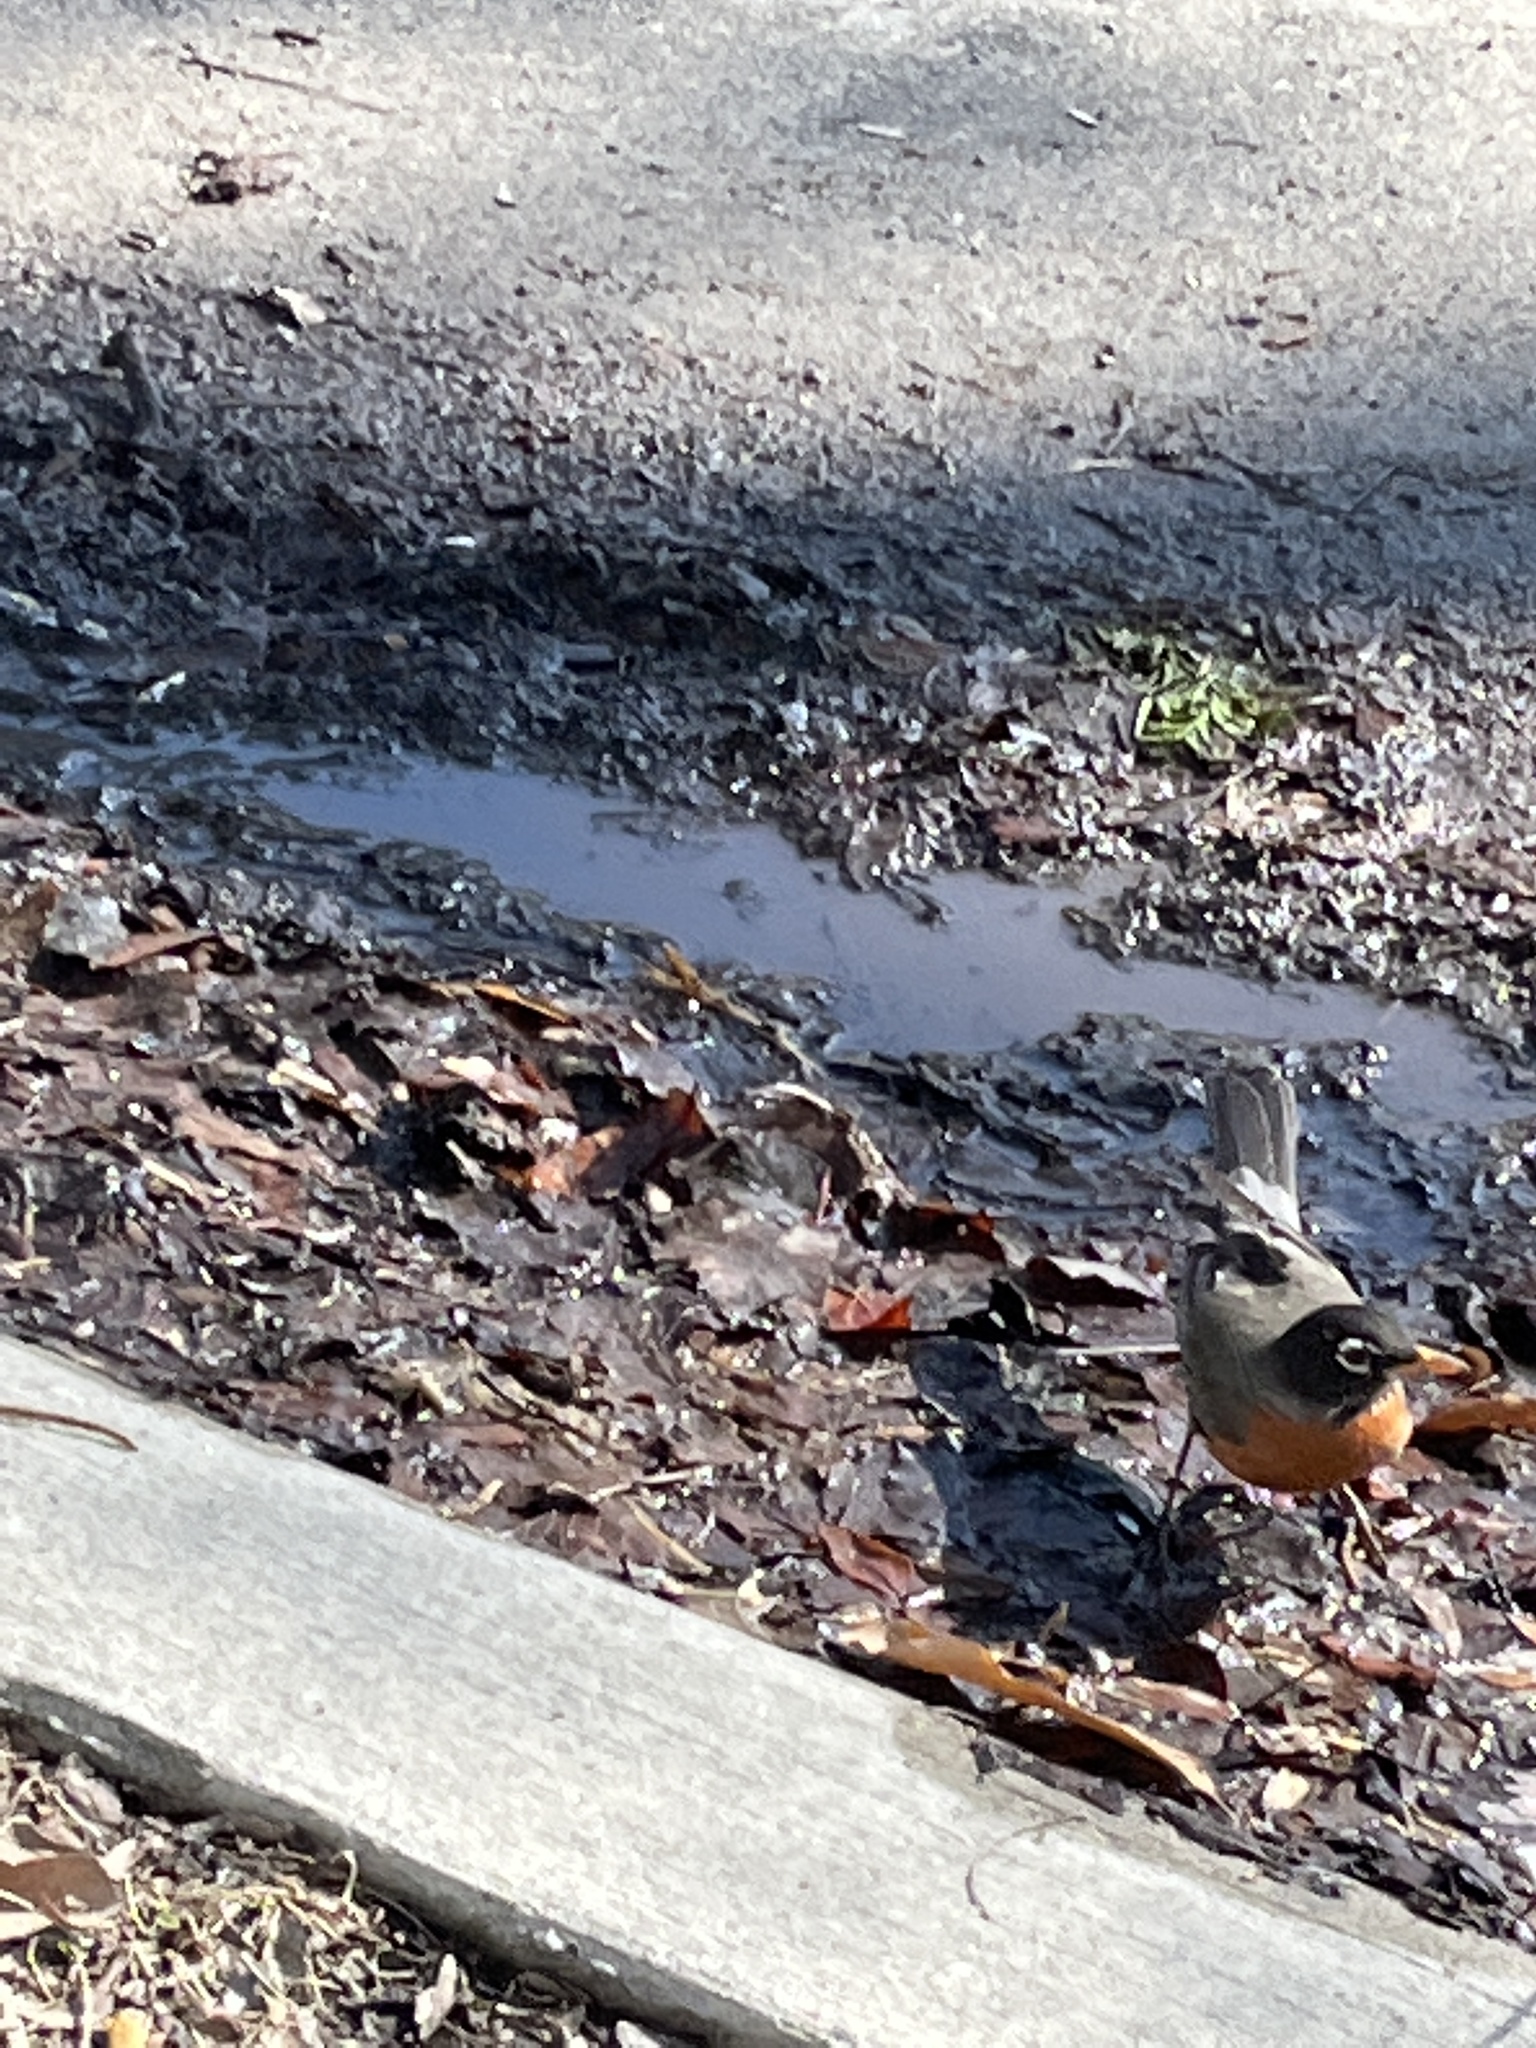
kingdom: Animalia
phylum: Chordata
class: Aves
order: Passeriformes
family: Turdidae
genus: Turdus
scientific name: Turdus migratorius
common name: American robin
